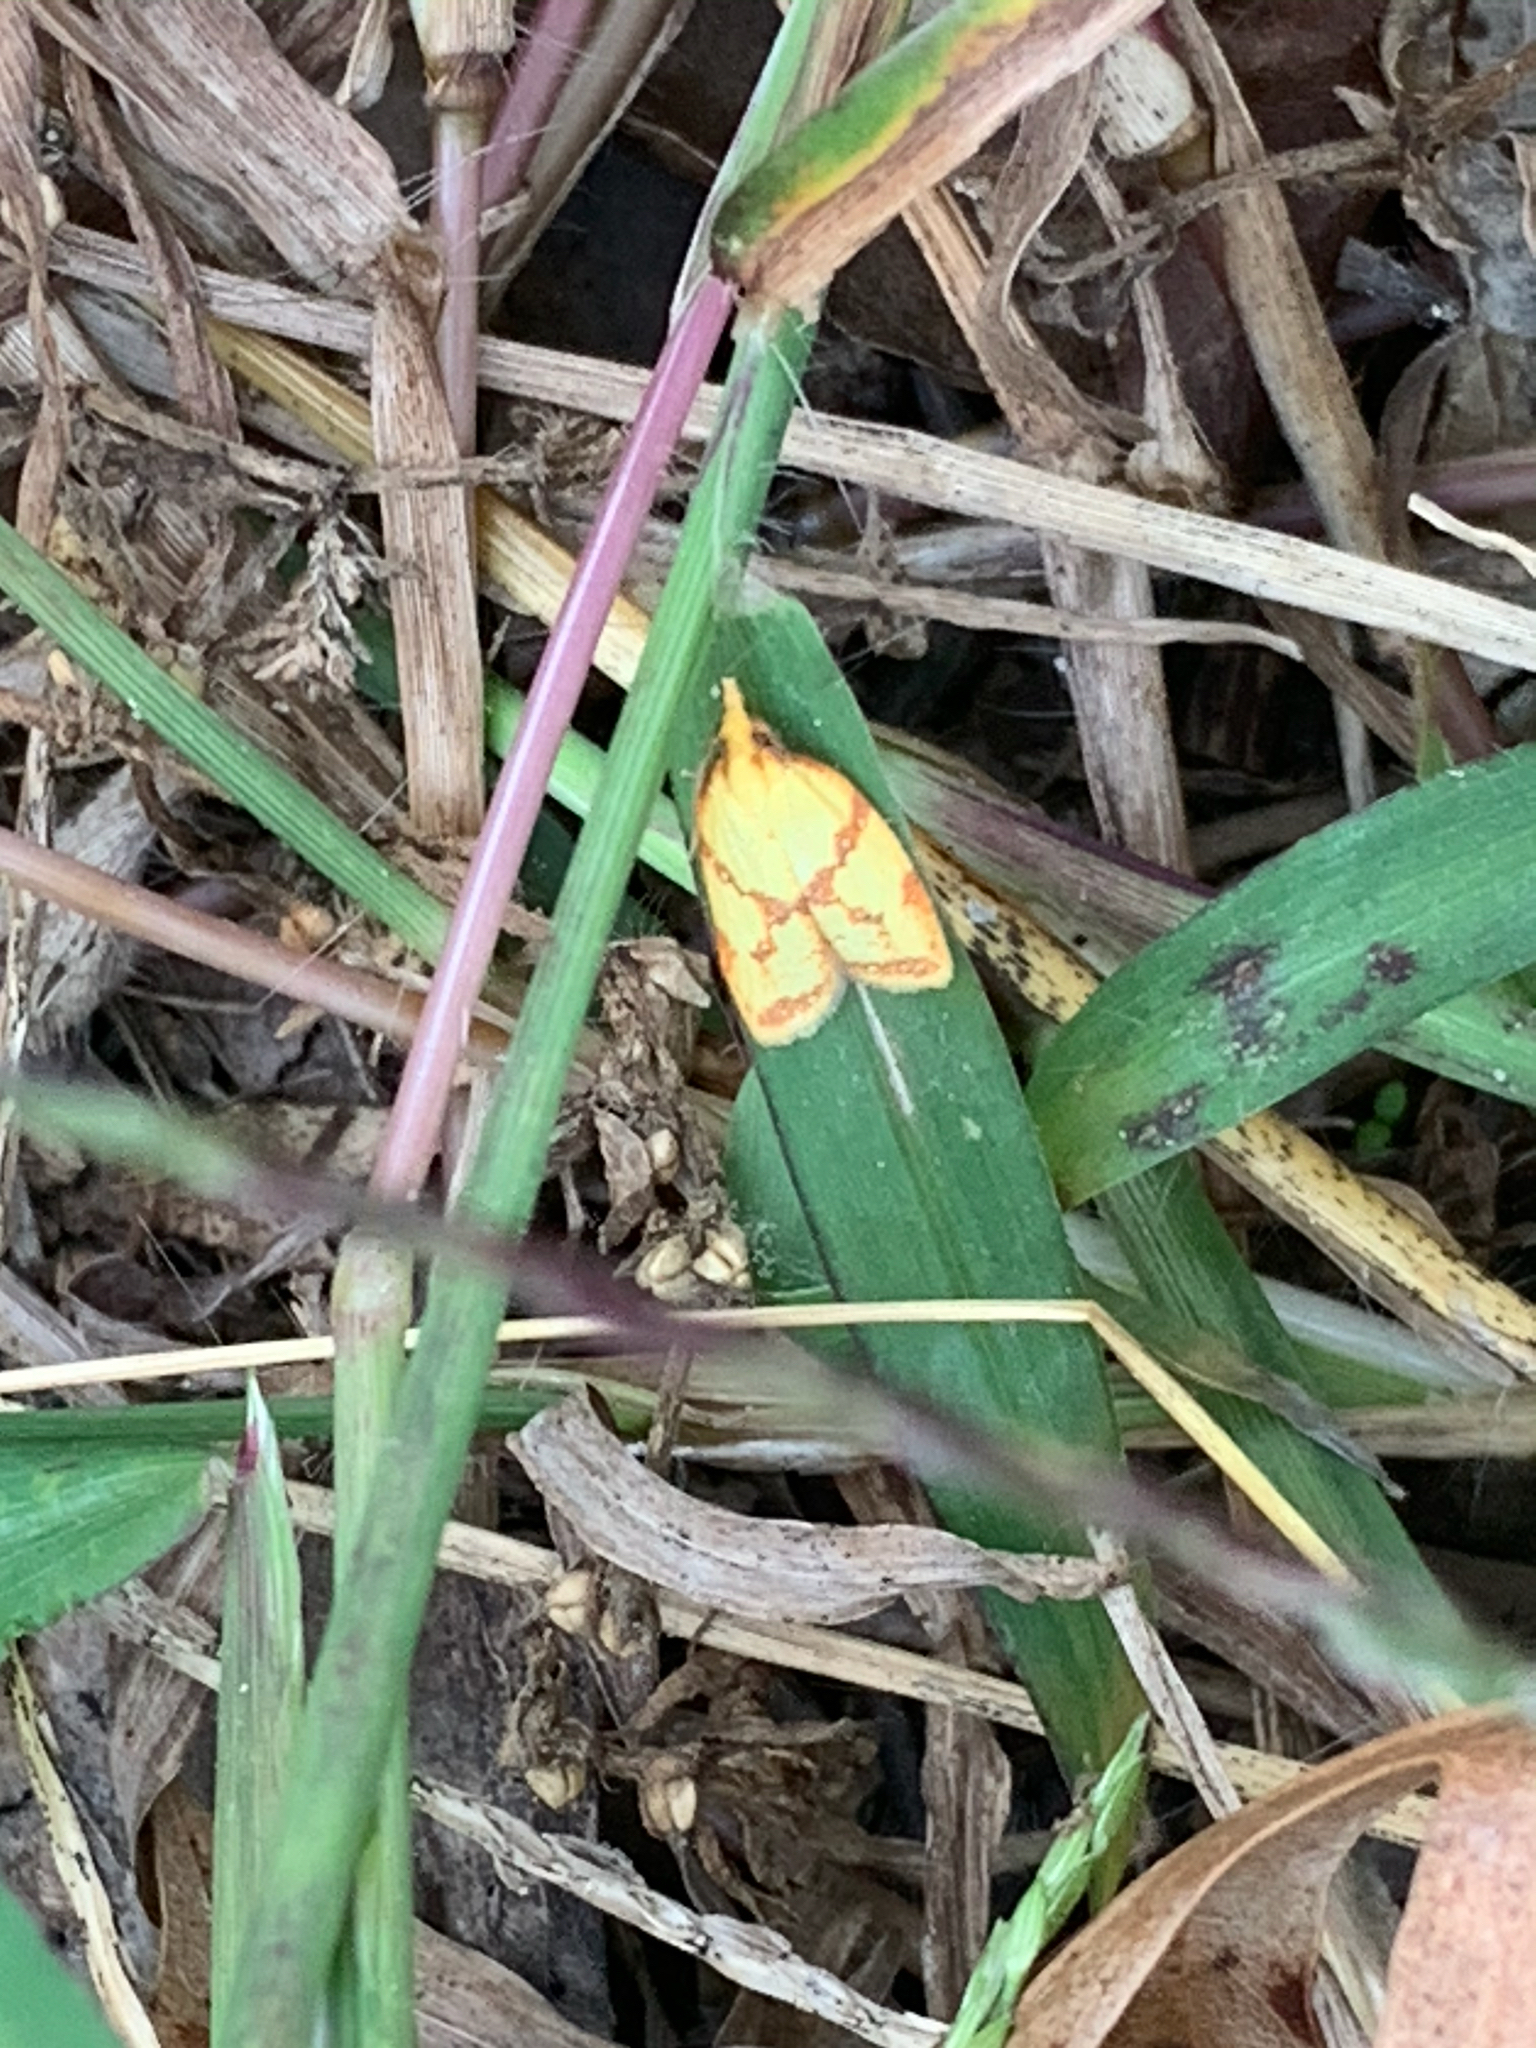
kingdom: Animalia
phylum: Arthropoda
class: Insecta
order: Lepidoptera
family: Tortricidae
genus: Sparganothis
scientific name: Sparganothis sulfureana
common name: Sparganothis fruitworm moth
